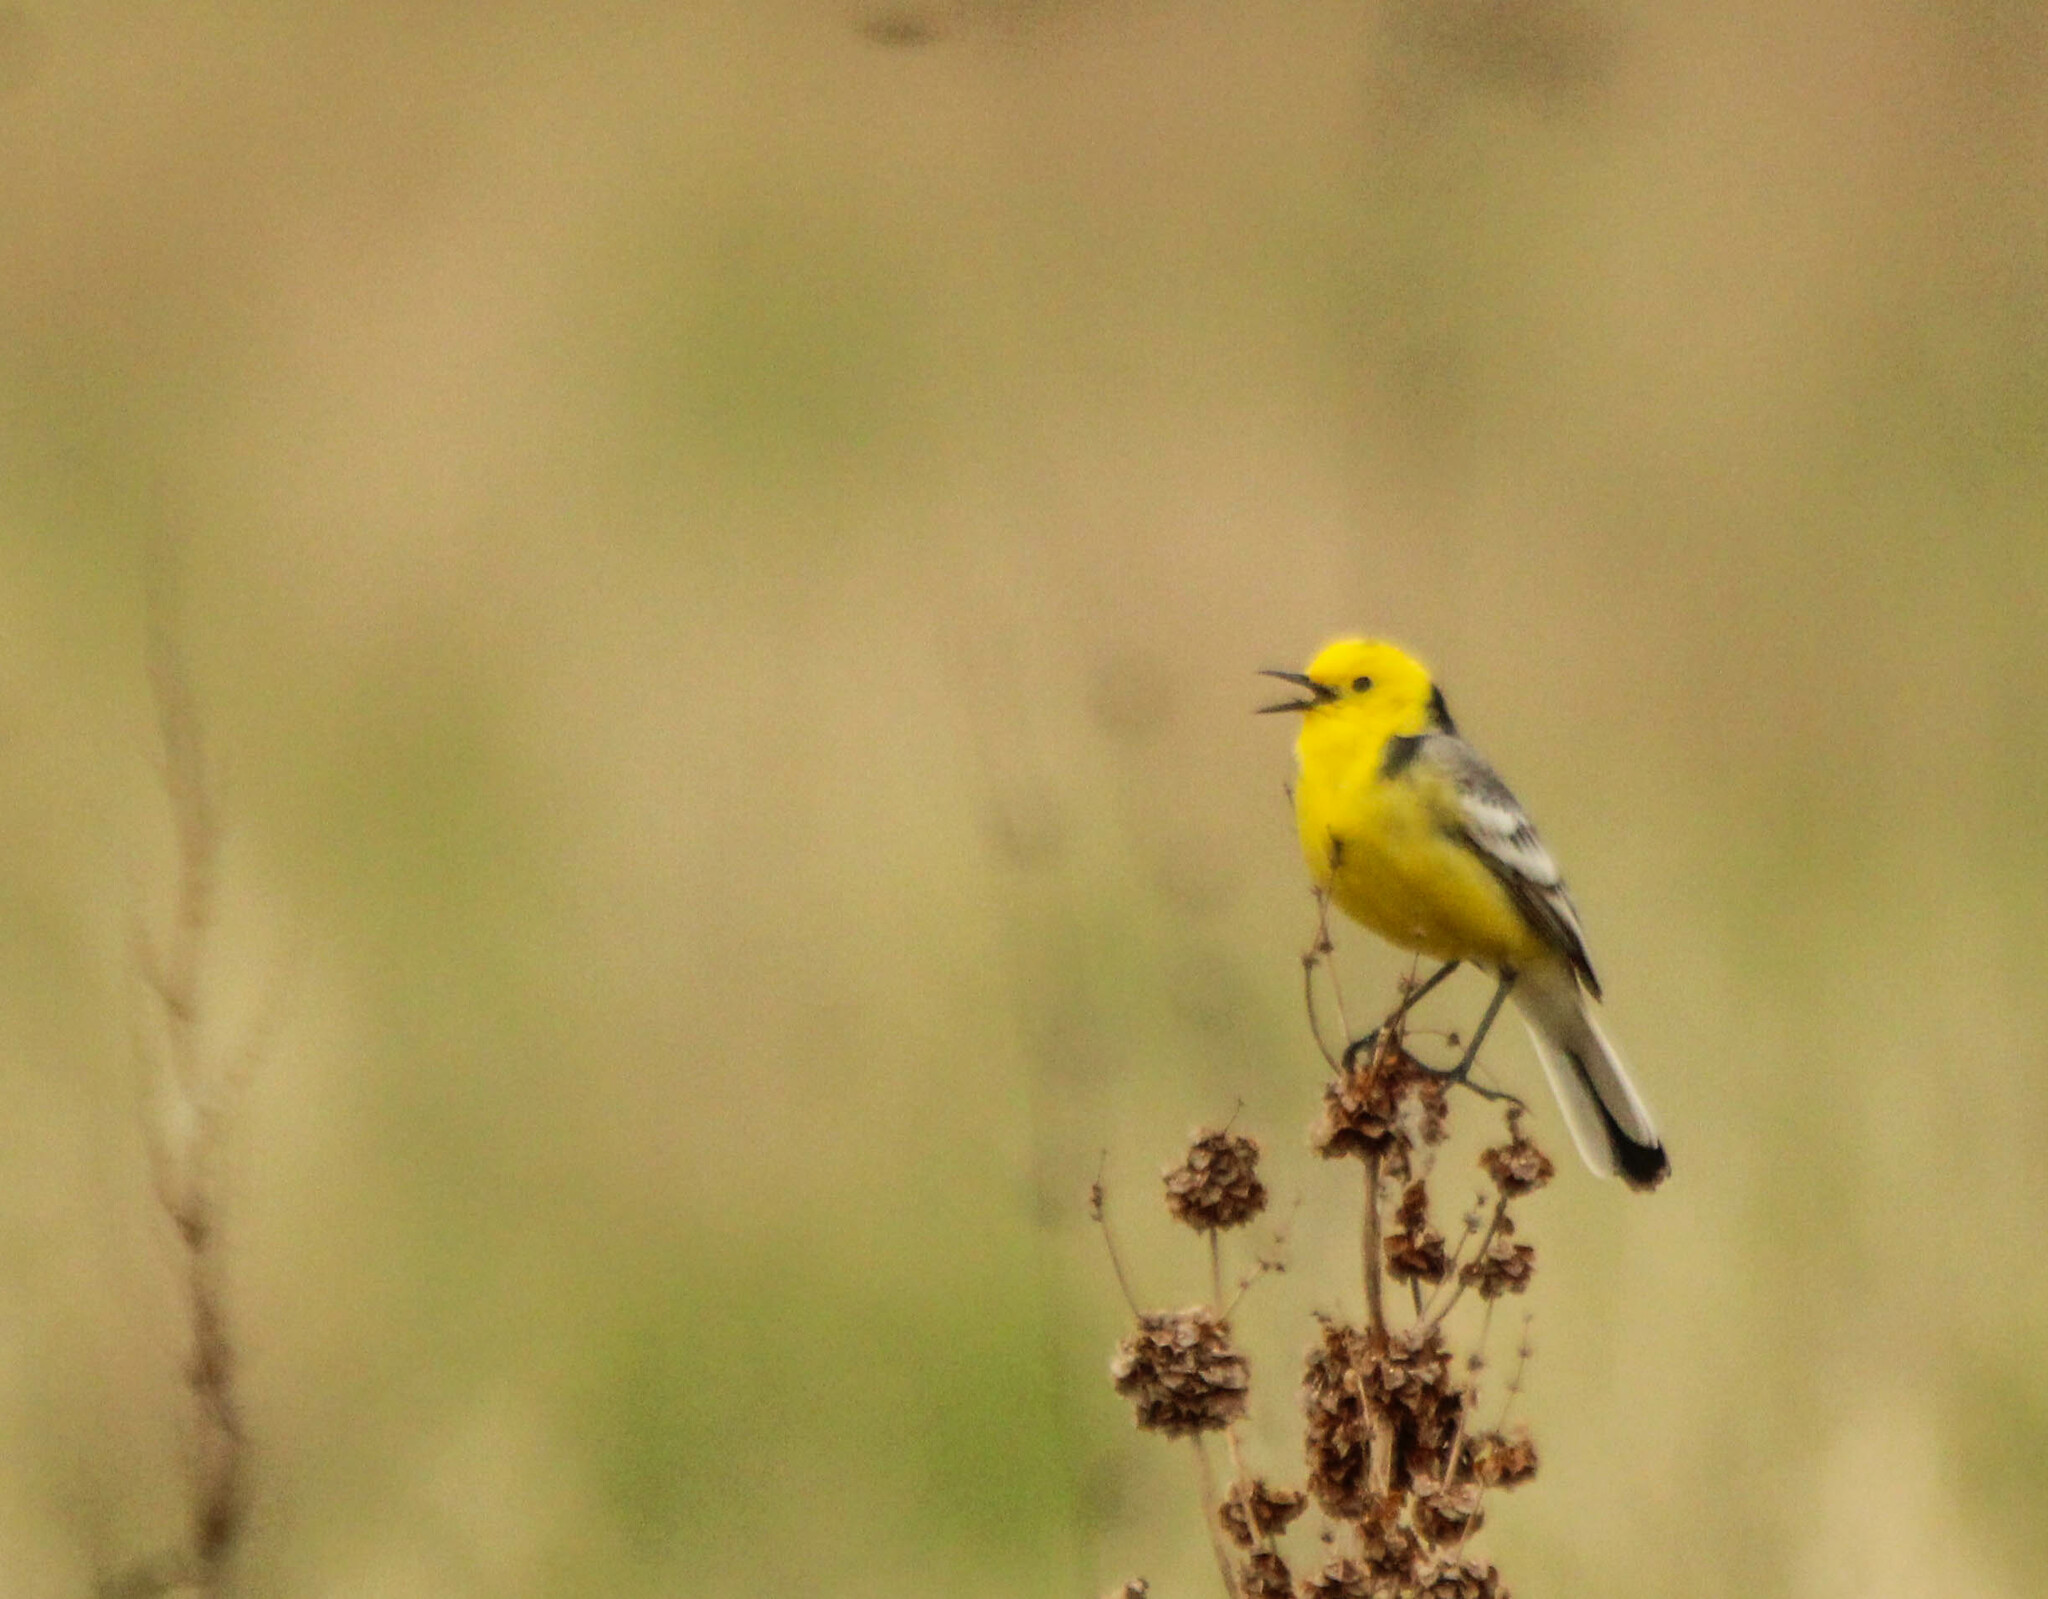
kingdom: Animalia
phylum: Chordata
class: Aves
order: Passeriformes
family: Motacillidae
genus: Motacilla
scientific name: Motacilla citreola
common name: Citrine wagtail
